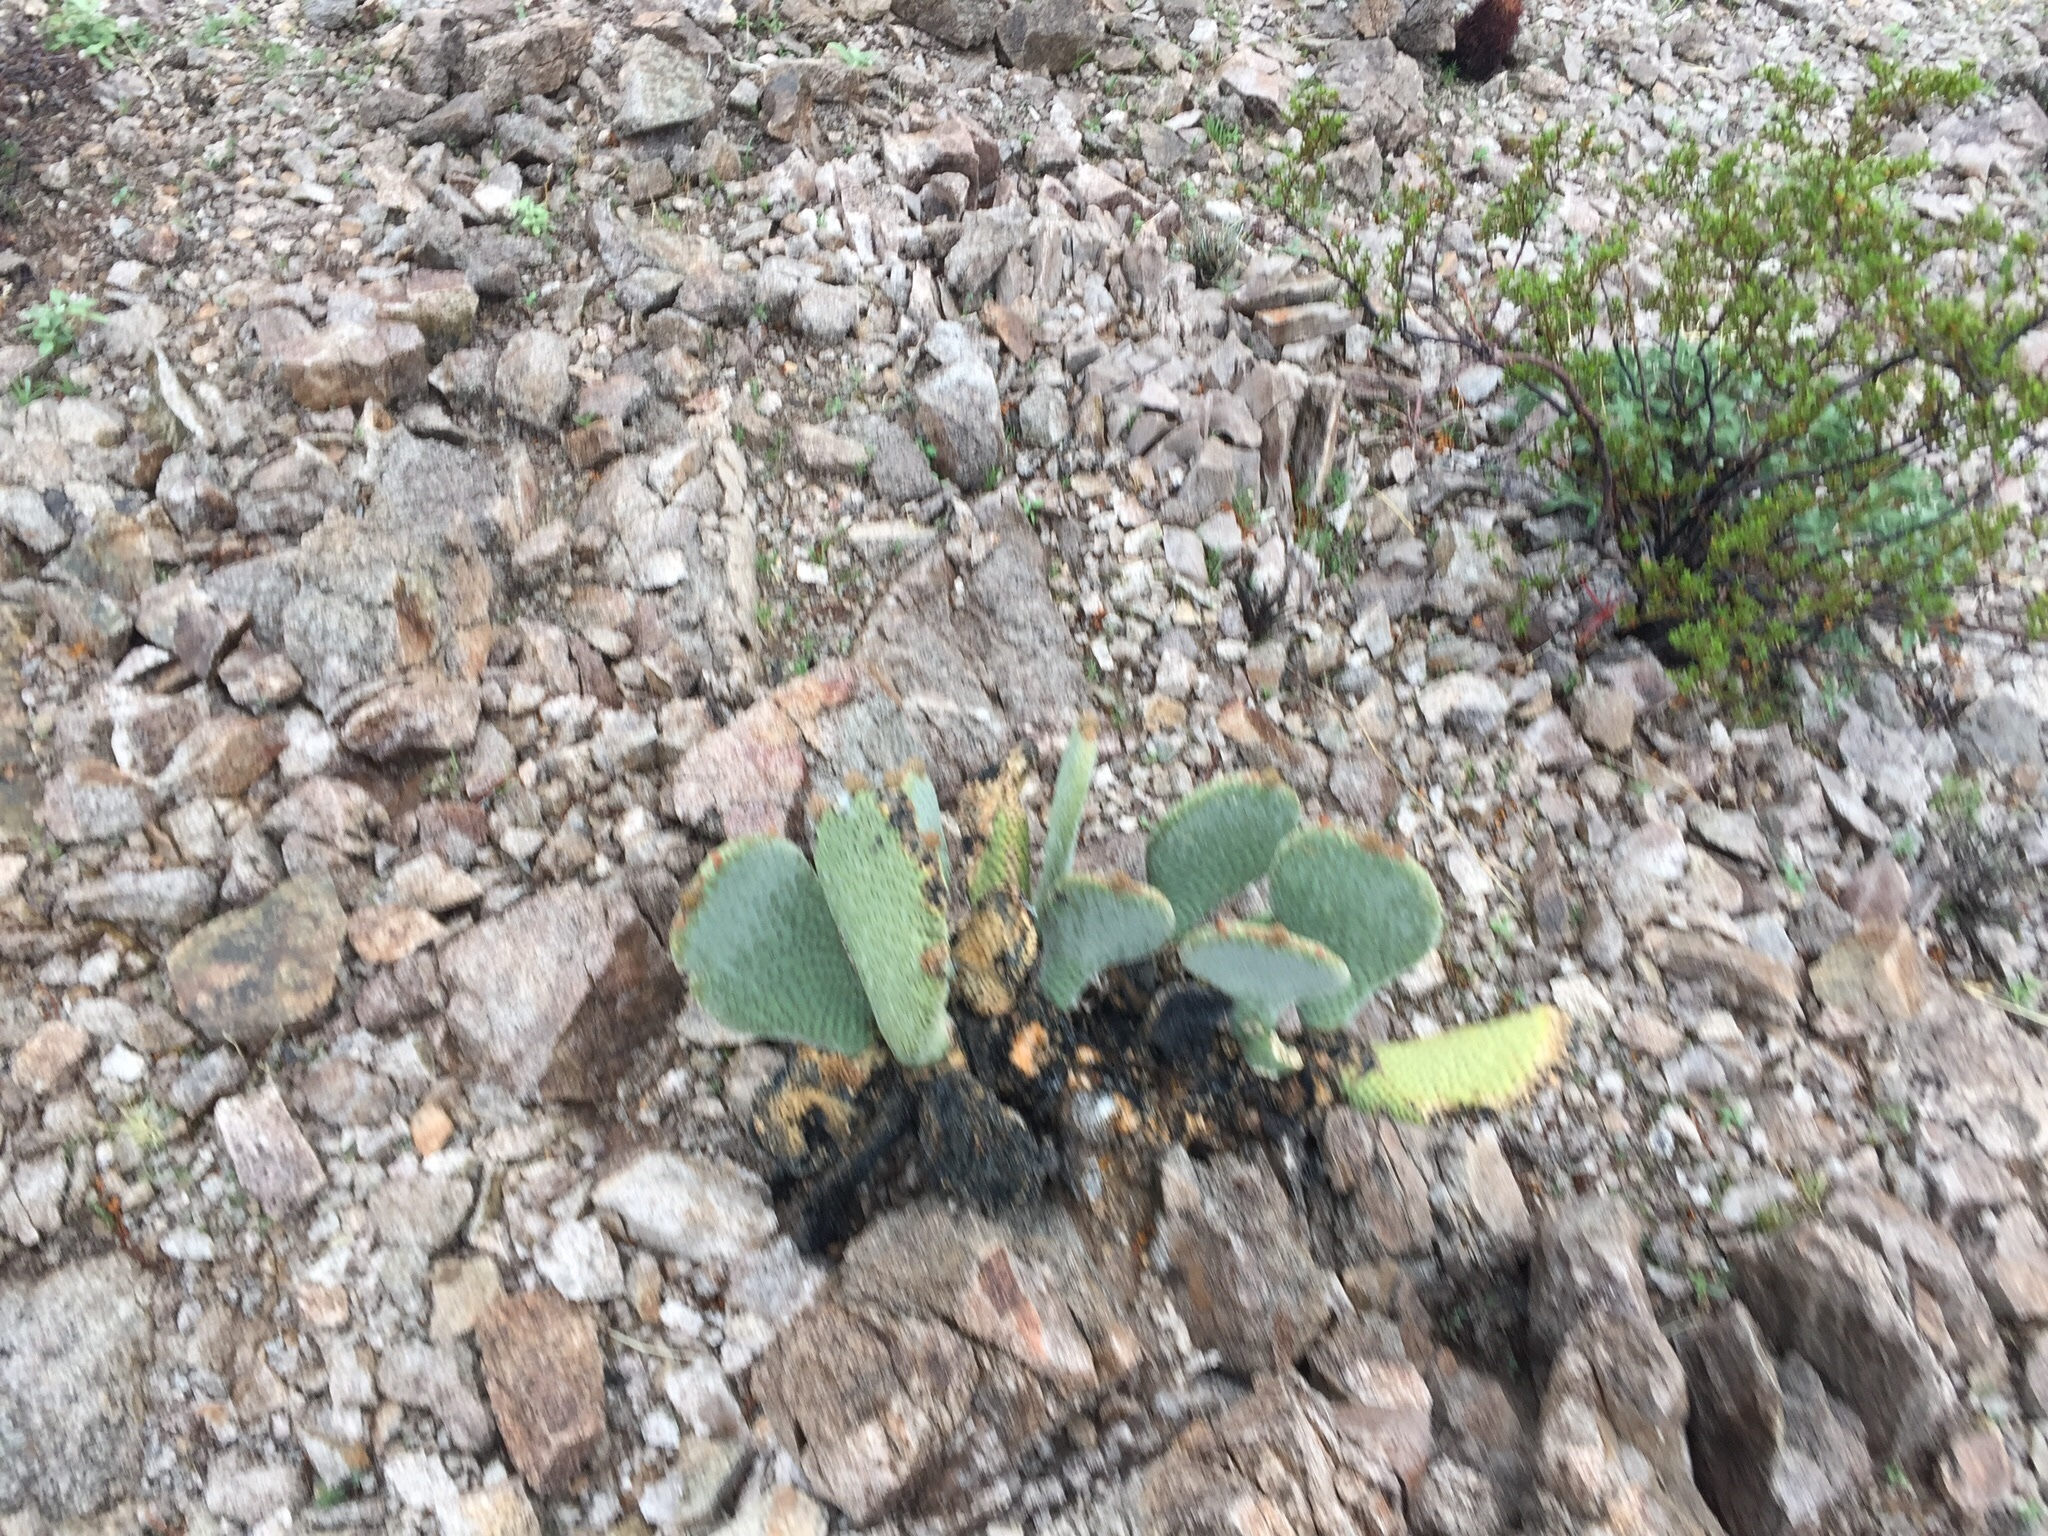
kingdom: Plantae
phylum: Tracheophyta
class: Magnoliopsida
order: Caryophyllales
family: Cactaceae
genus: Opuntia
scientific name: Opuntia basilaris
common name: Beavertail prickly-pear
